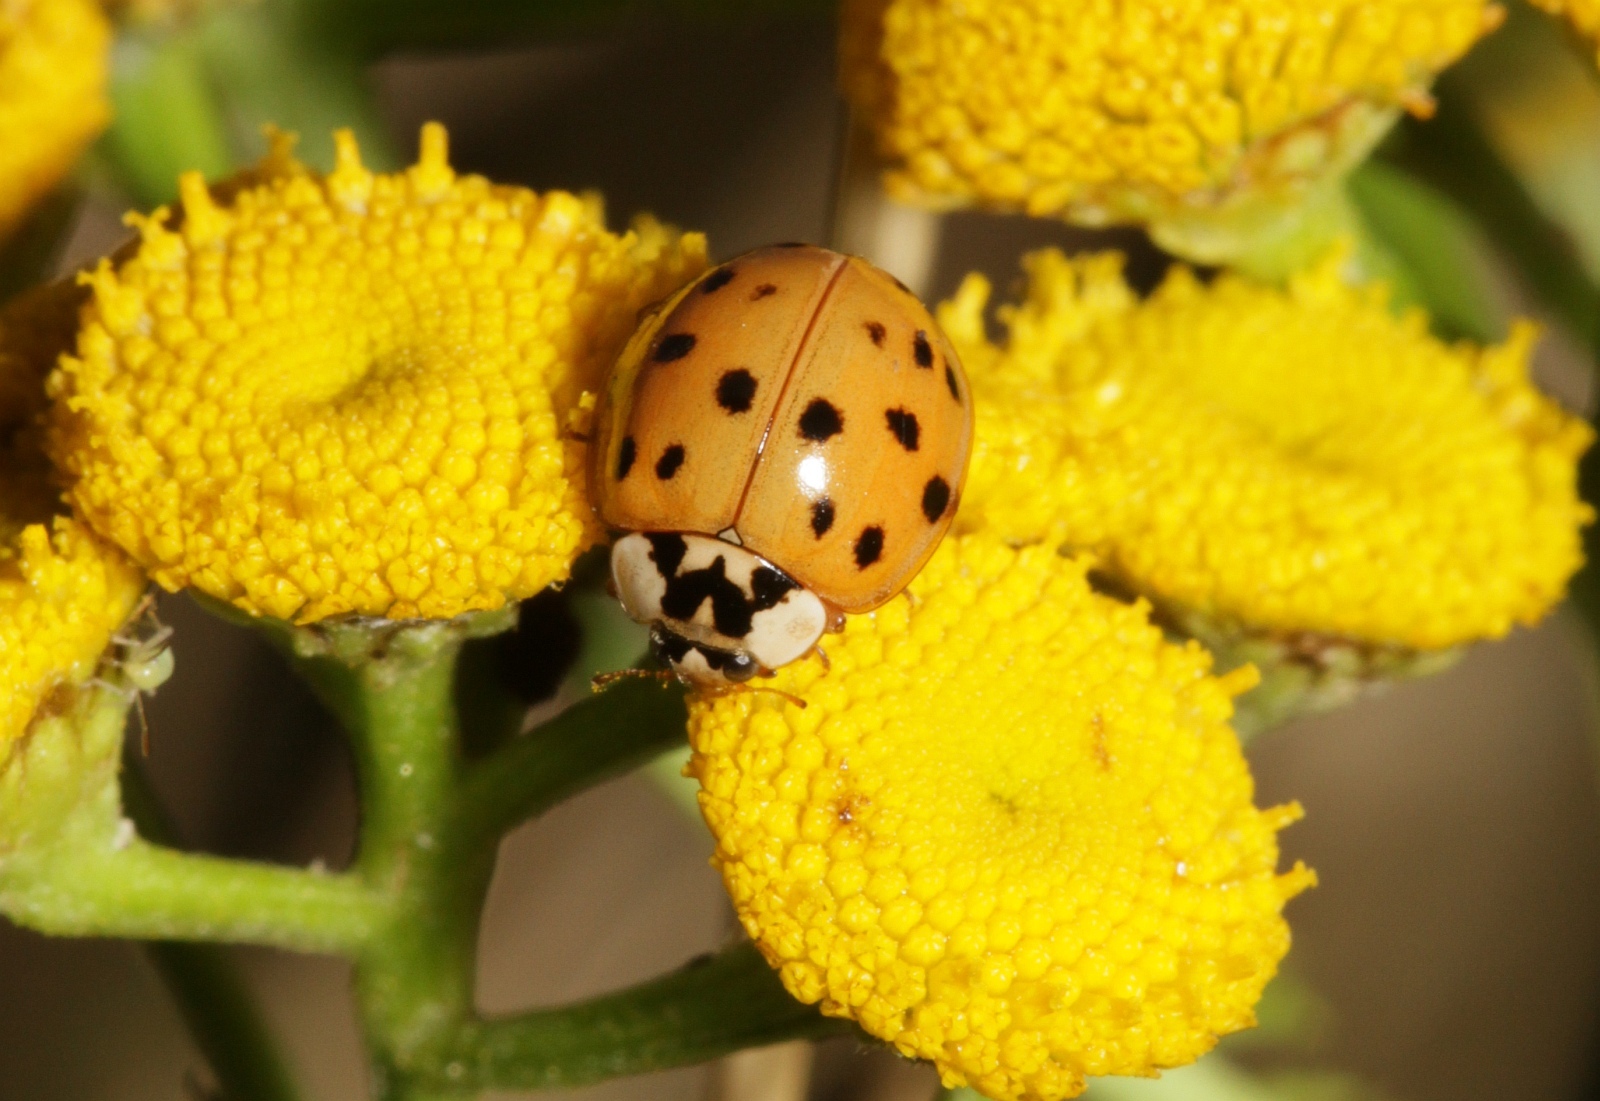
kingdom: Animalia
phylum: Arthropoda
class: Insecta
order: Coleoptera
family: Coccinellidae
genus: Harmonia
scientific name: Harmonia axyridis
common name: Harlequin ladybird
